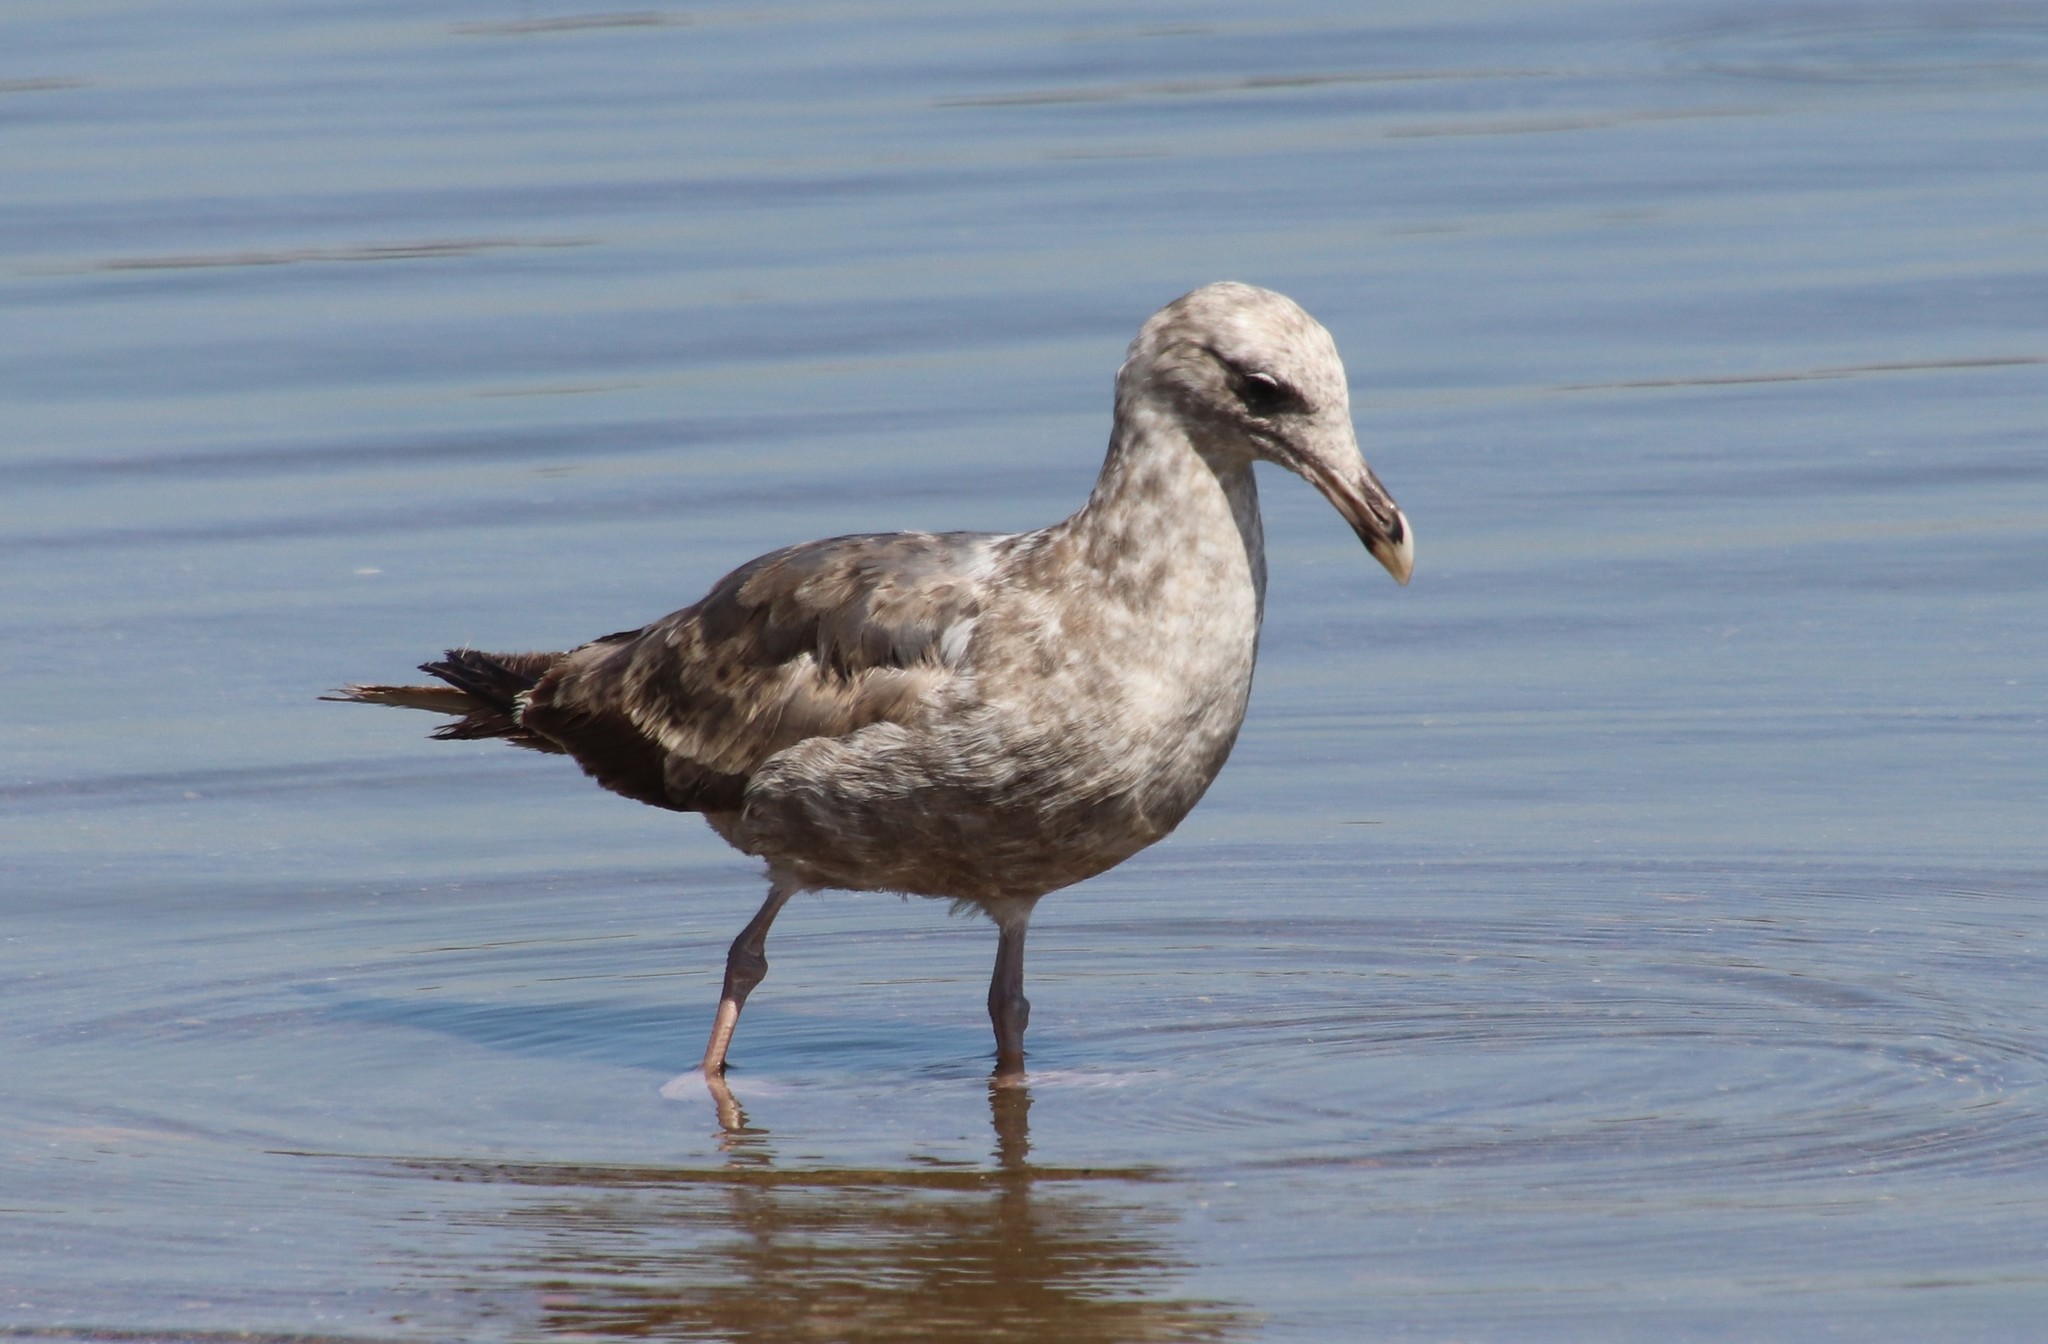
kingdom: Animalia
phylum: Chordata
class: Aves
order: Charadriiformes
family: Laridae
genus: Larus
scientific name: Larus occidentalis
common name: Western gull
